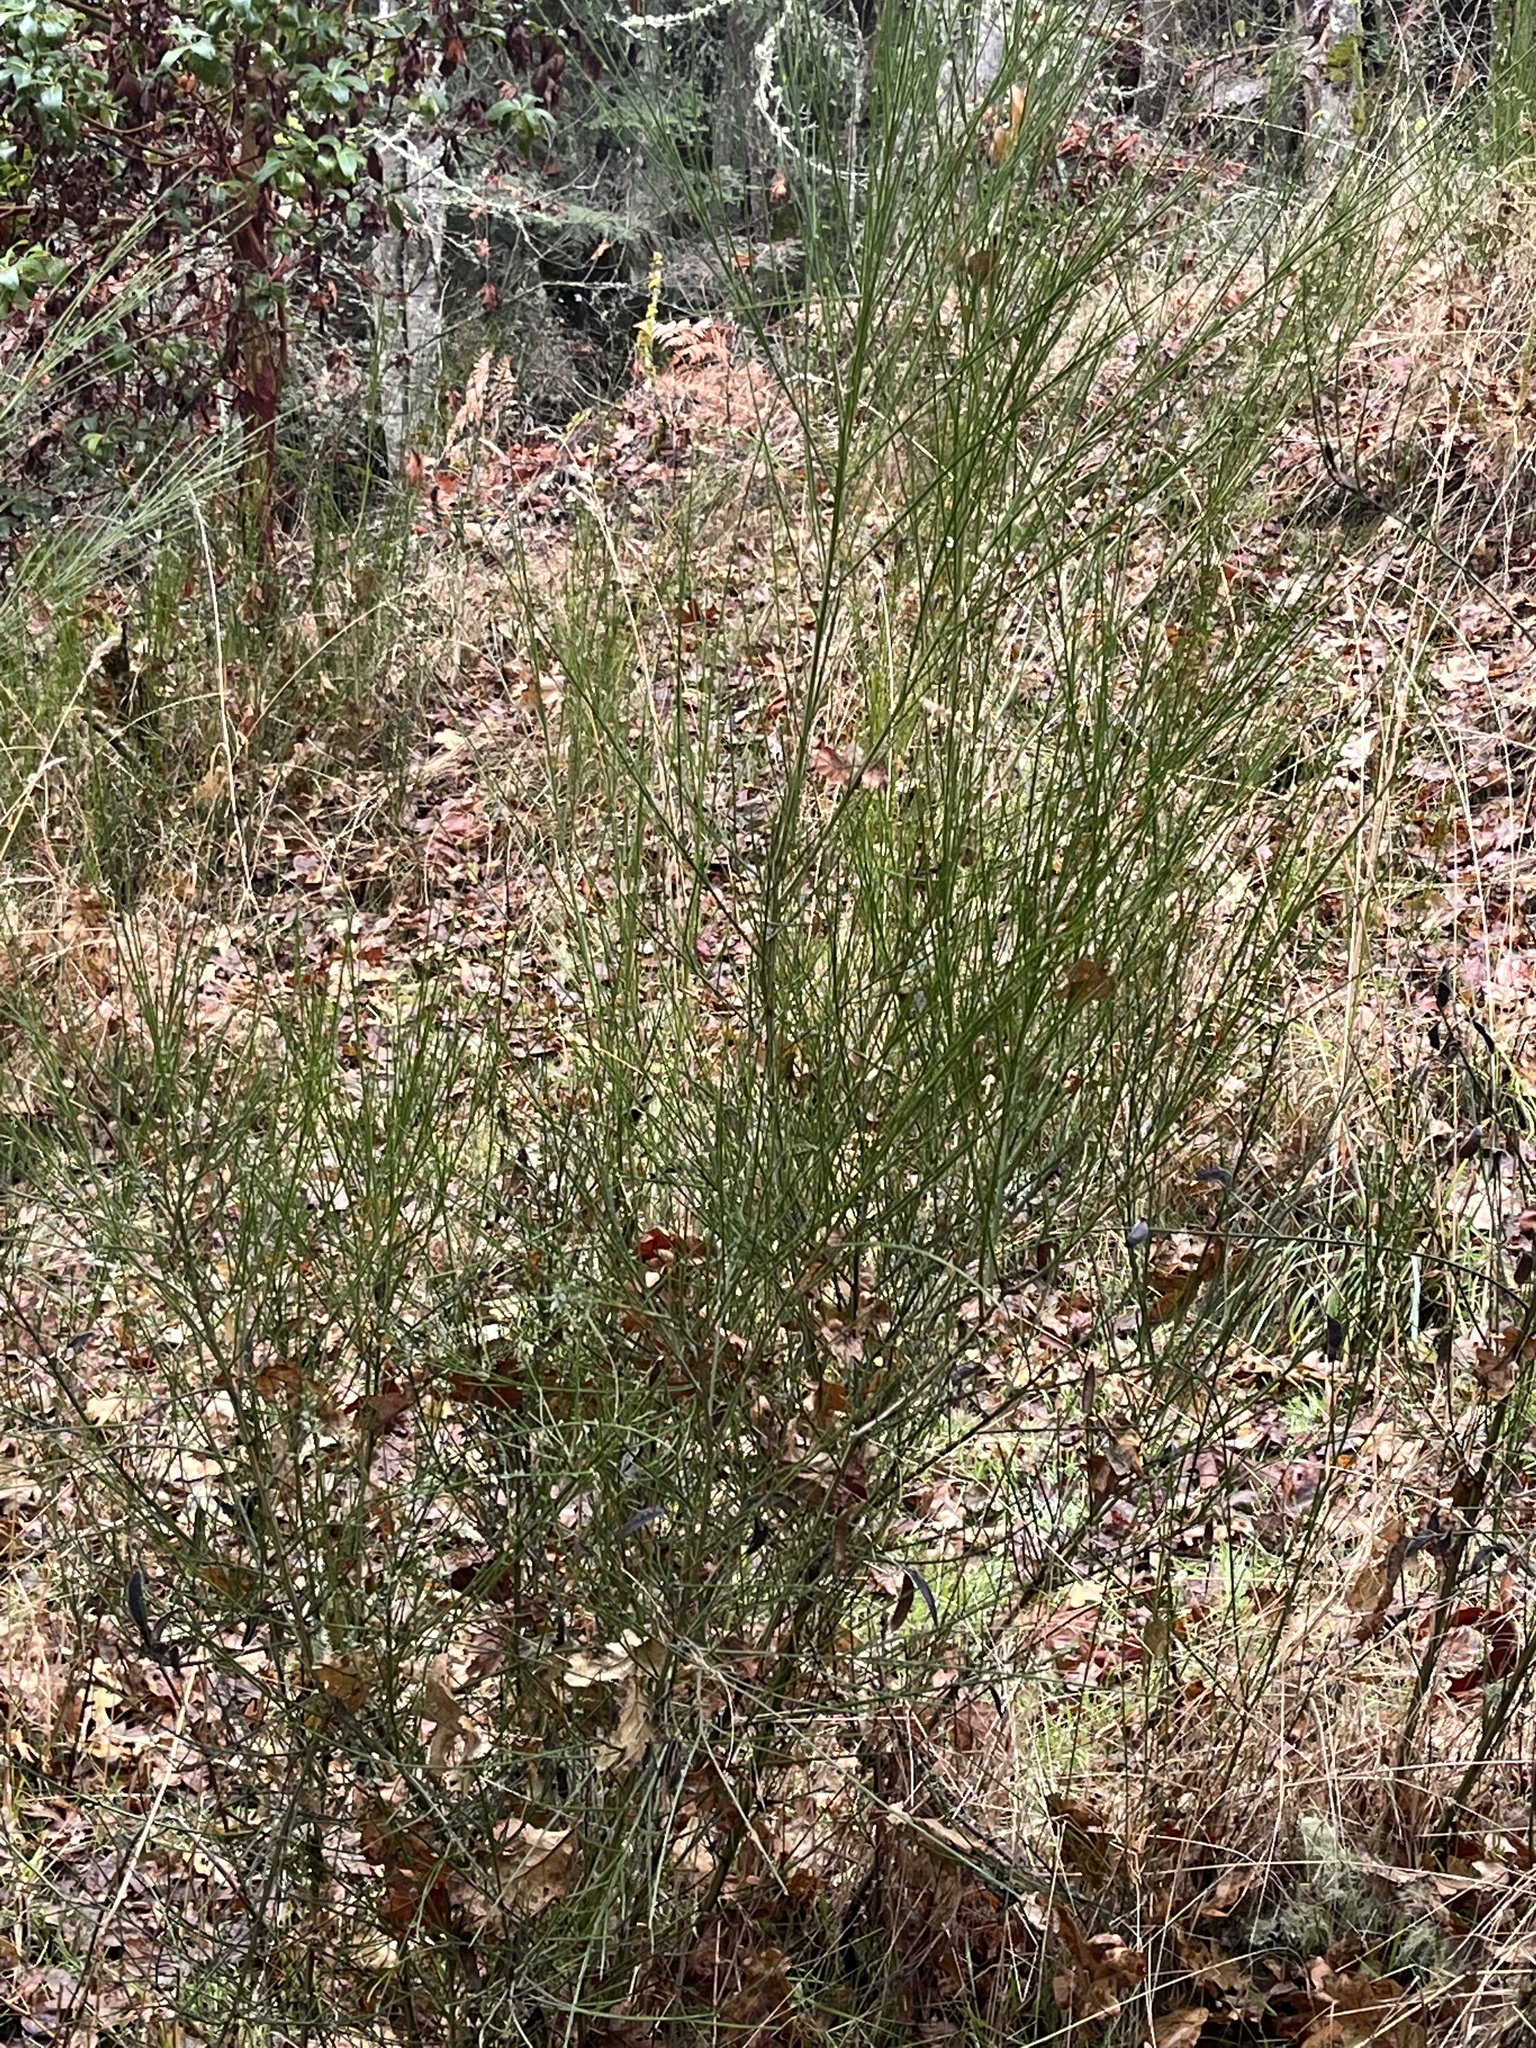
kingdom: Plantae
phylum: Tracheophyta
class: Magnoliopsida
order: Fabales
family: Fabaceae
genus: Cytisus
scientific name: Cytisus scoparius
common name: Scotch broom
